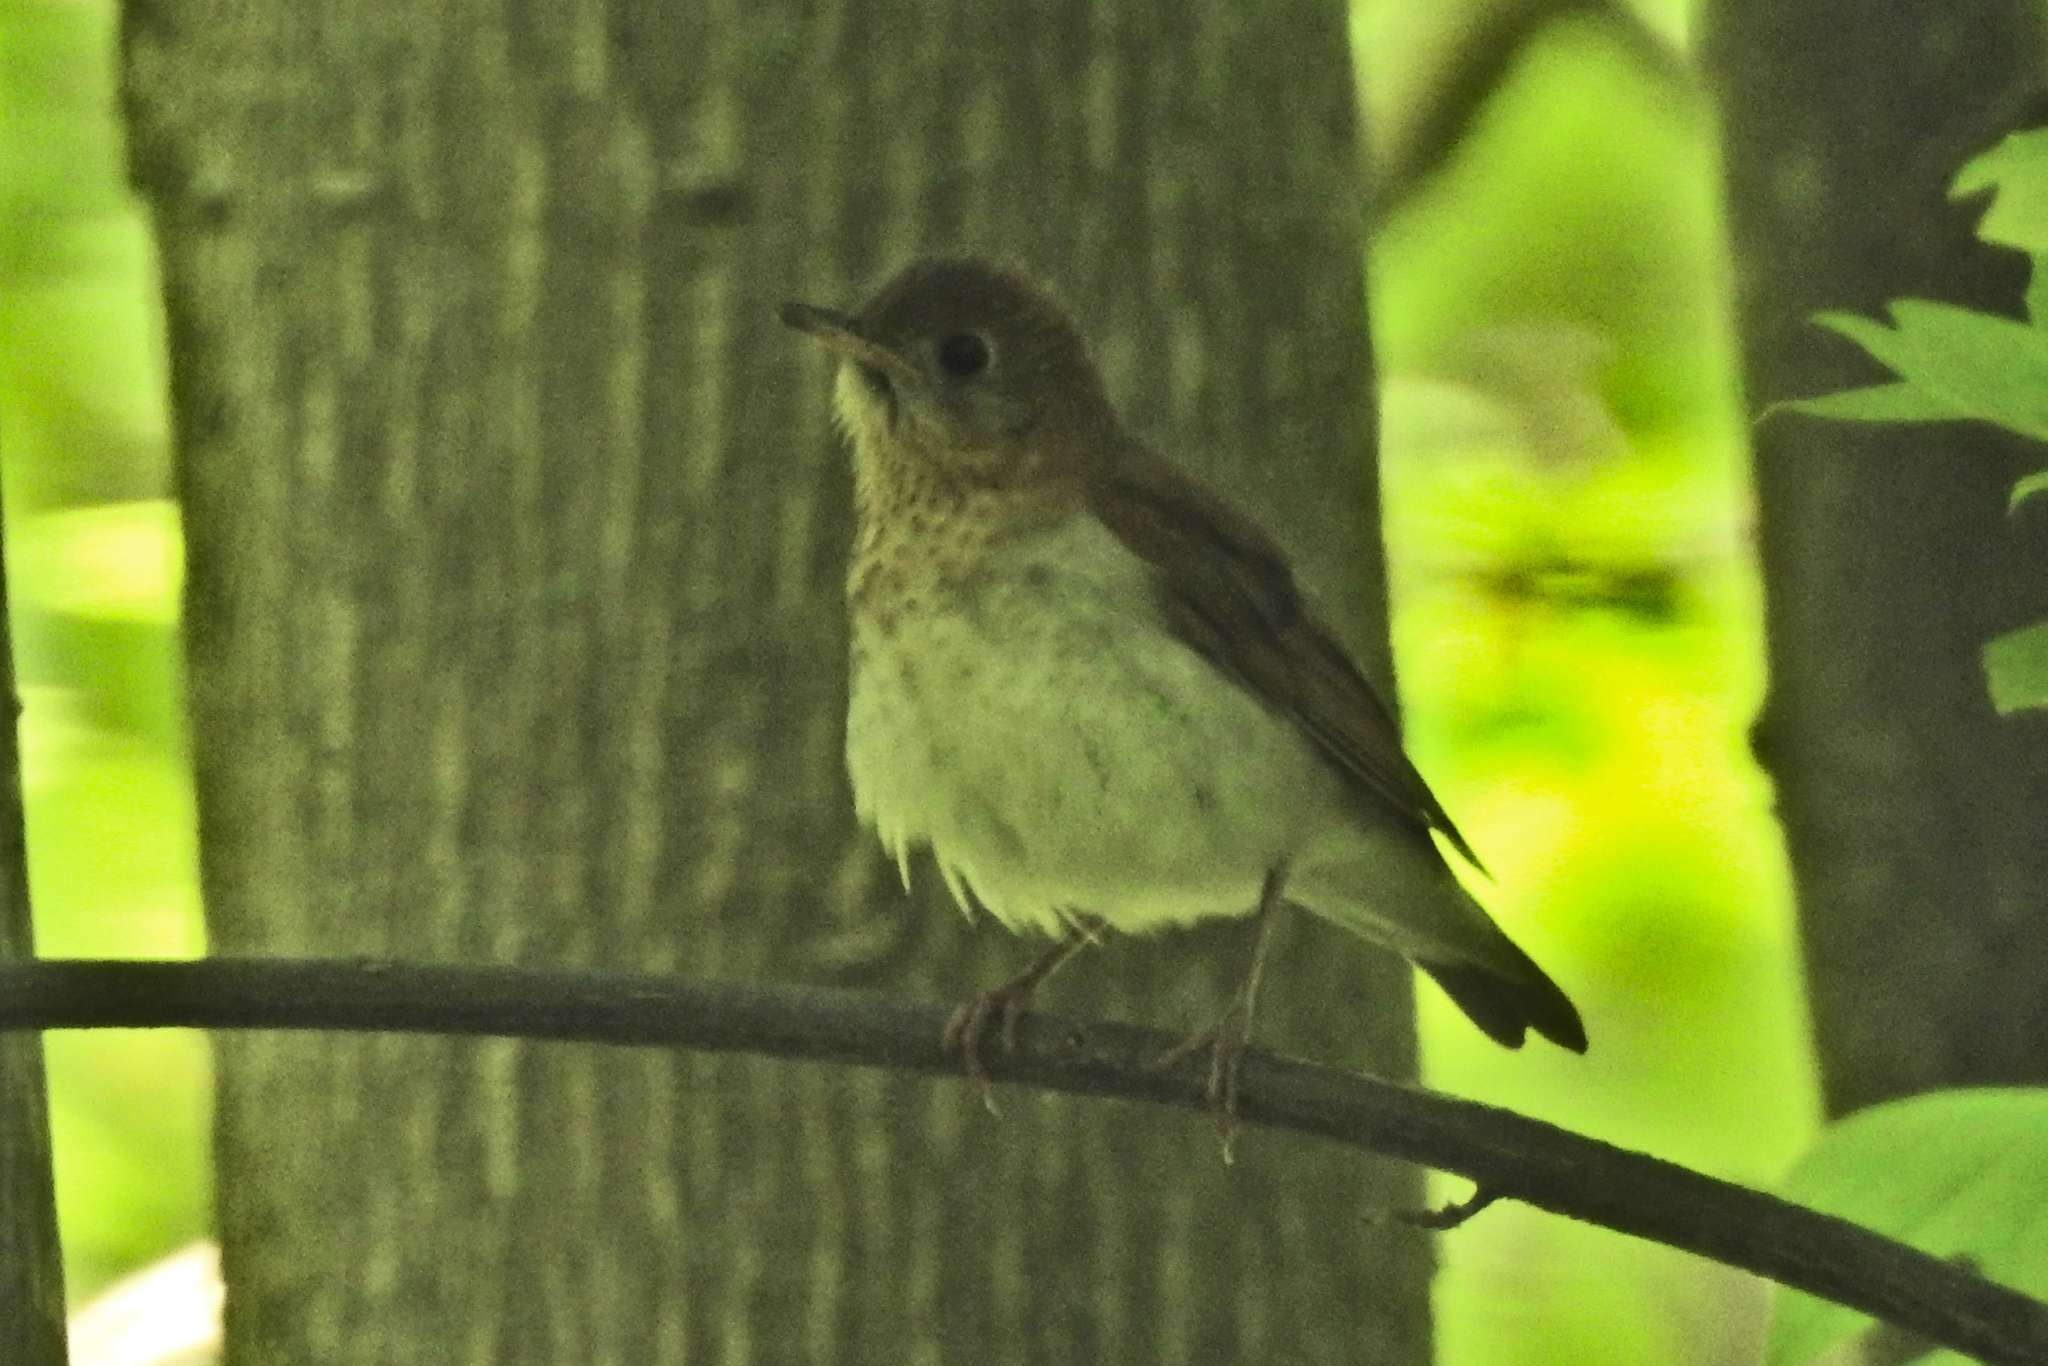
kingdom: Animalia
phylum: Chordata
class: Aves
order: Passeriformes
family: Turdidae
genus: Catharus
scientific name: Catharus fuscescens
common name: Veery
